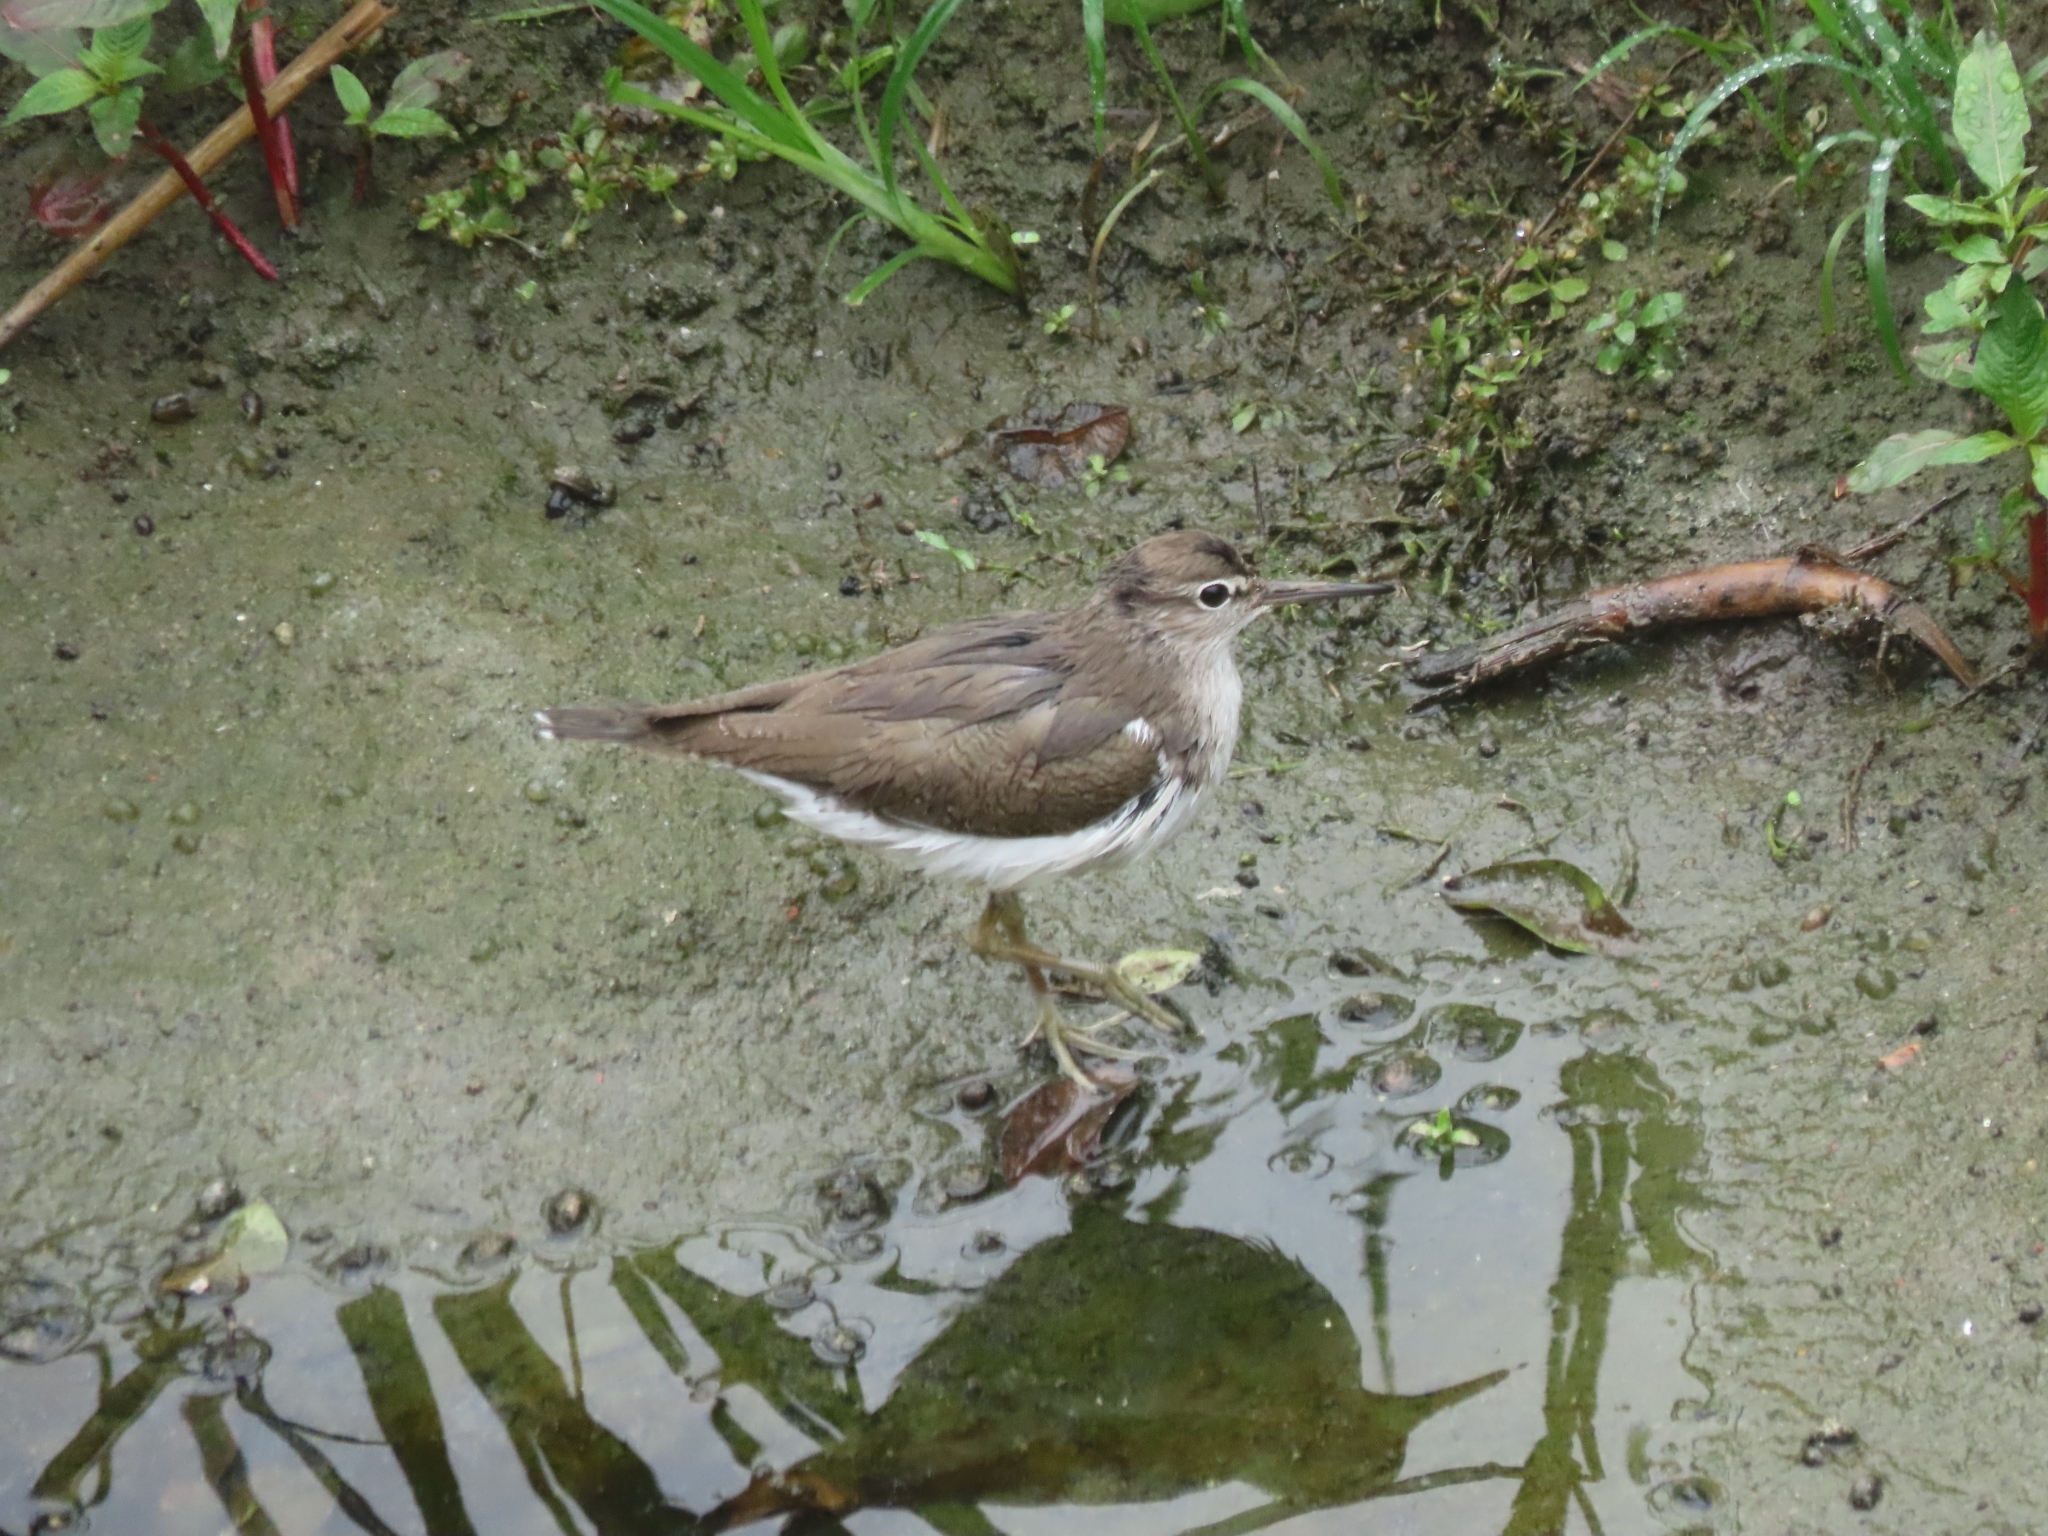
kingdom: Animalia
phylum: Chordata
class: Aves
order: Charadriiformes
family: Scolopacidae
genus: Actitis
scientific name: Actitis hypoleucos
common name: Common sandpiper
